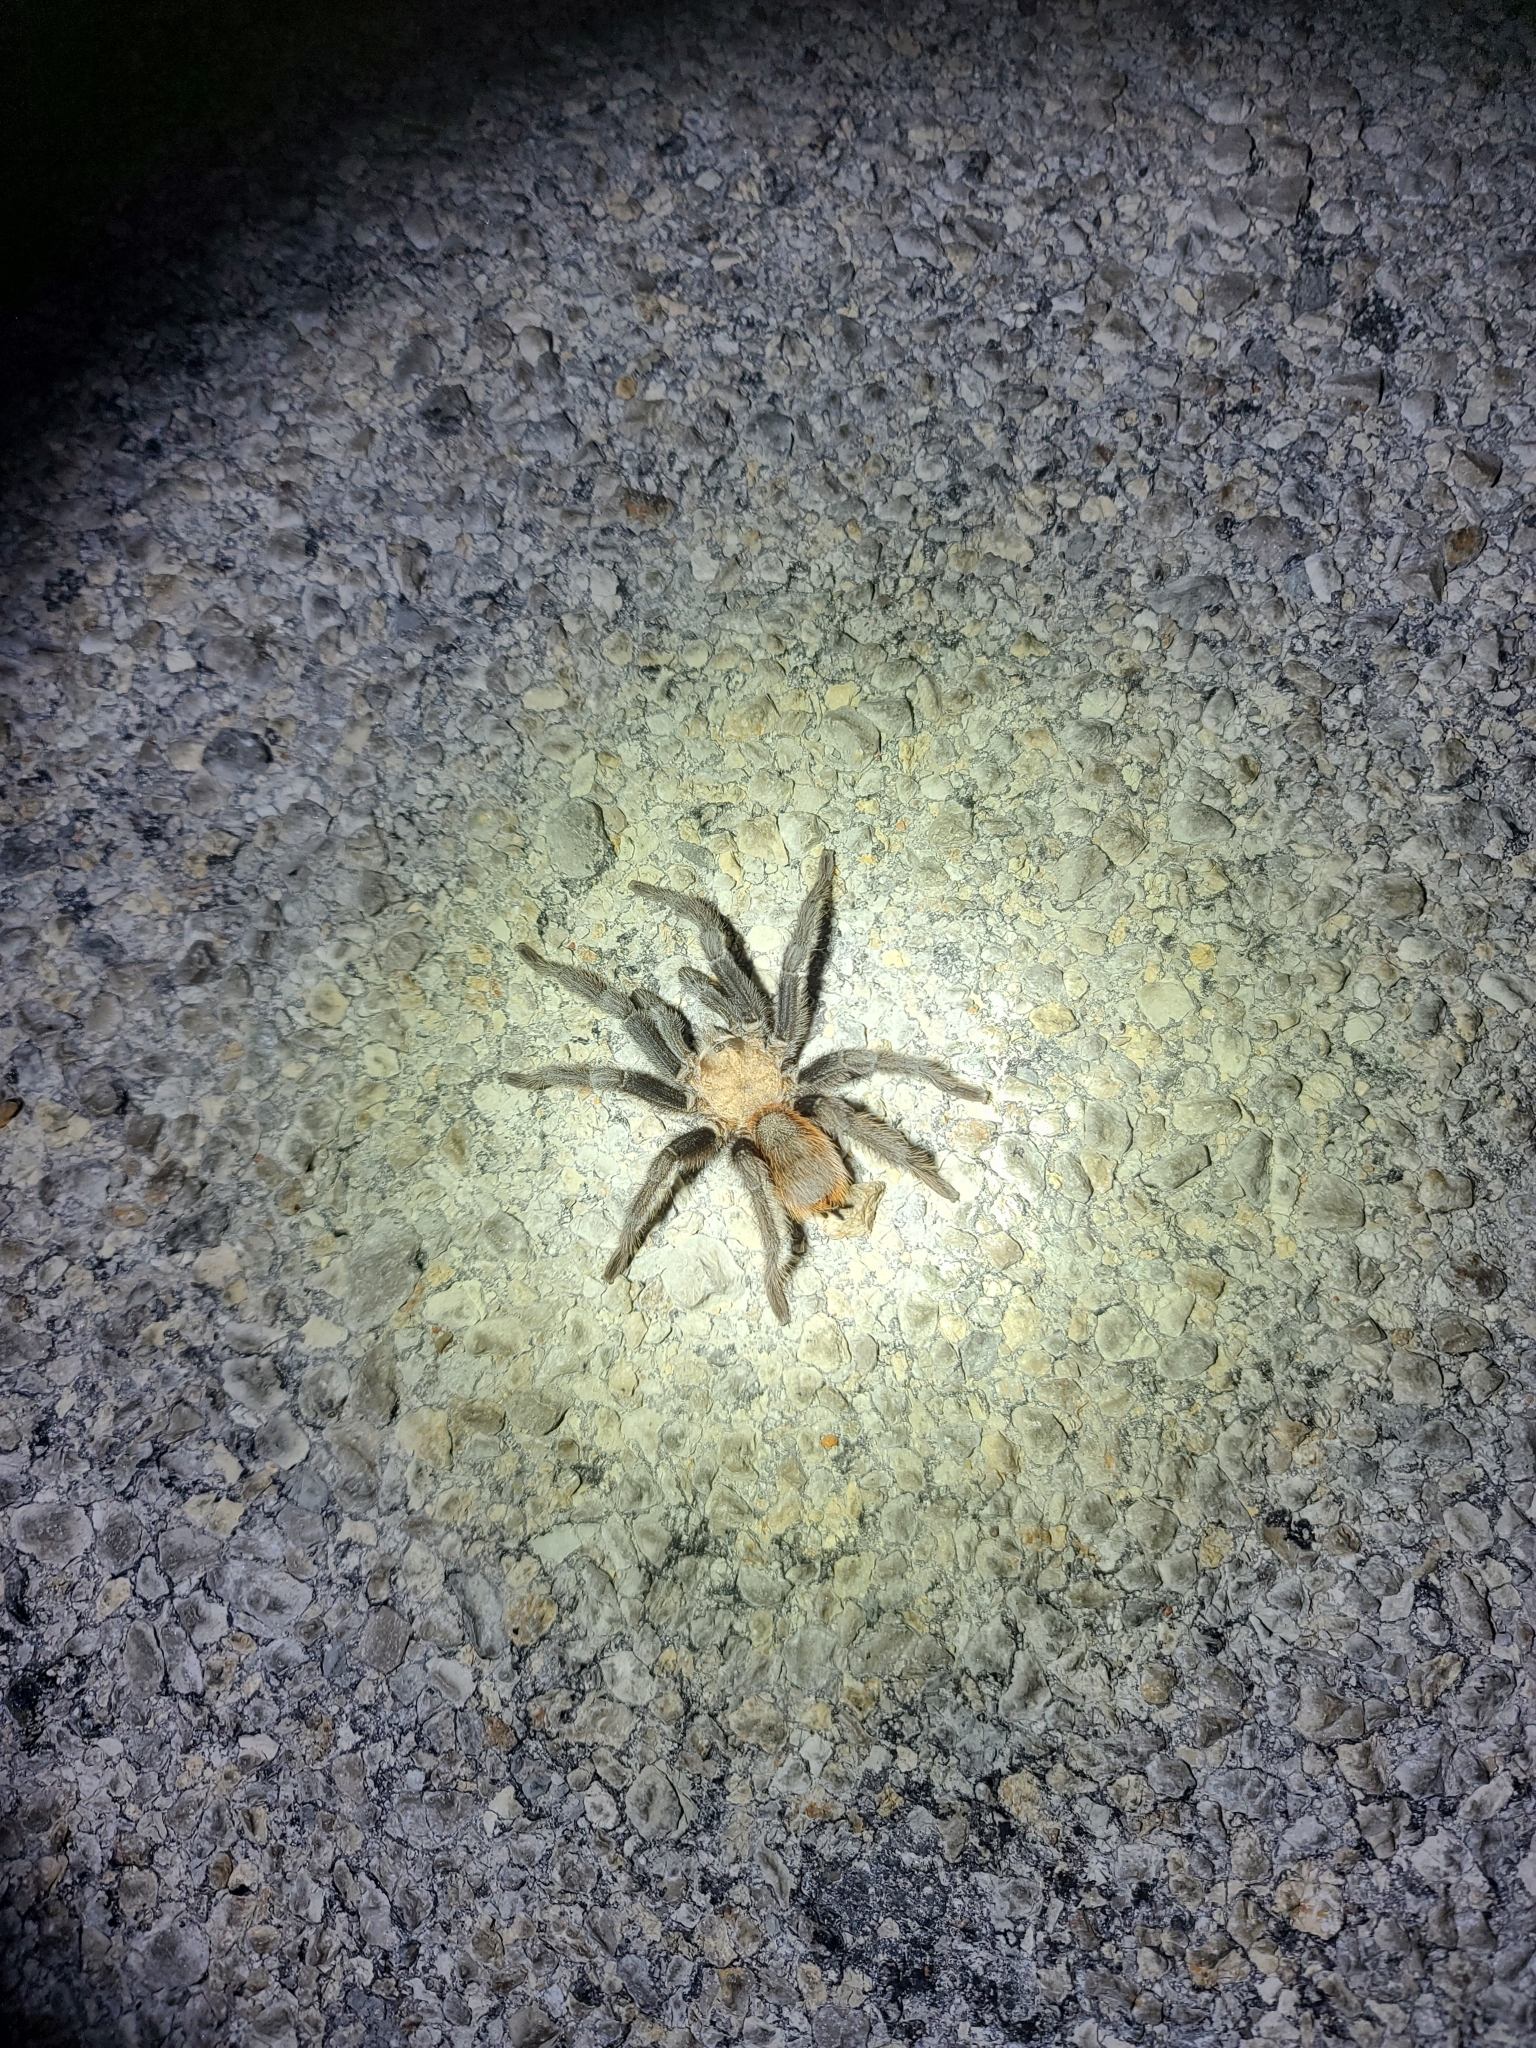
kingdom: Animalia
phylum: Arthropoda
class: Arachnida
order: Araneae
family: Theraphosidae
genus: Aphonopelma
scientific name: Aphonopelma hentzi
